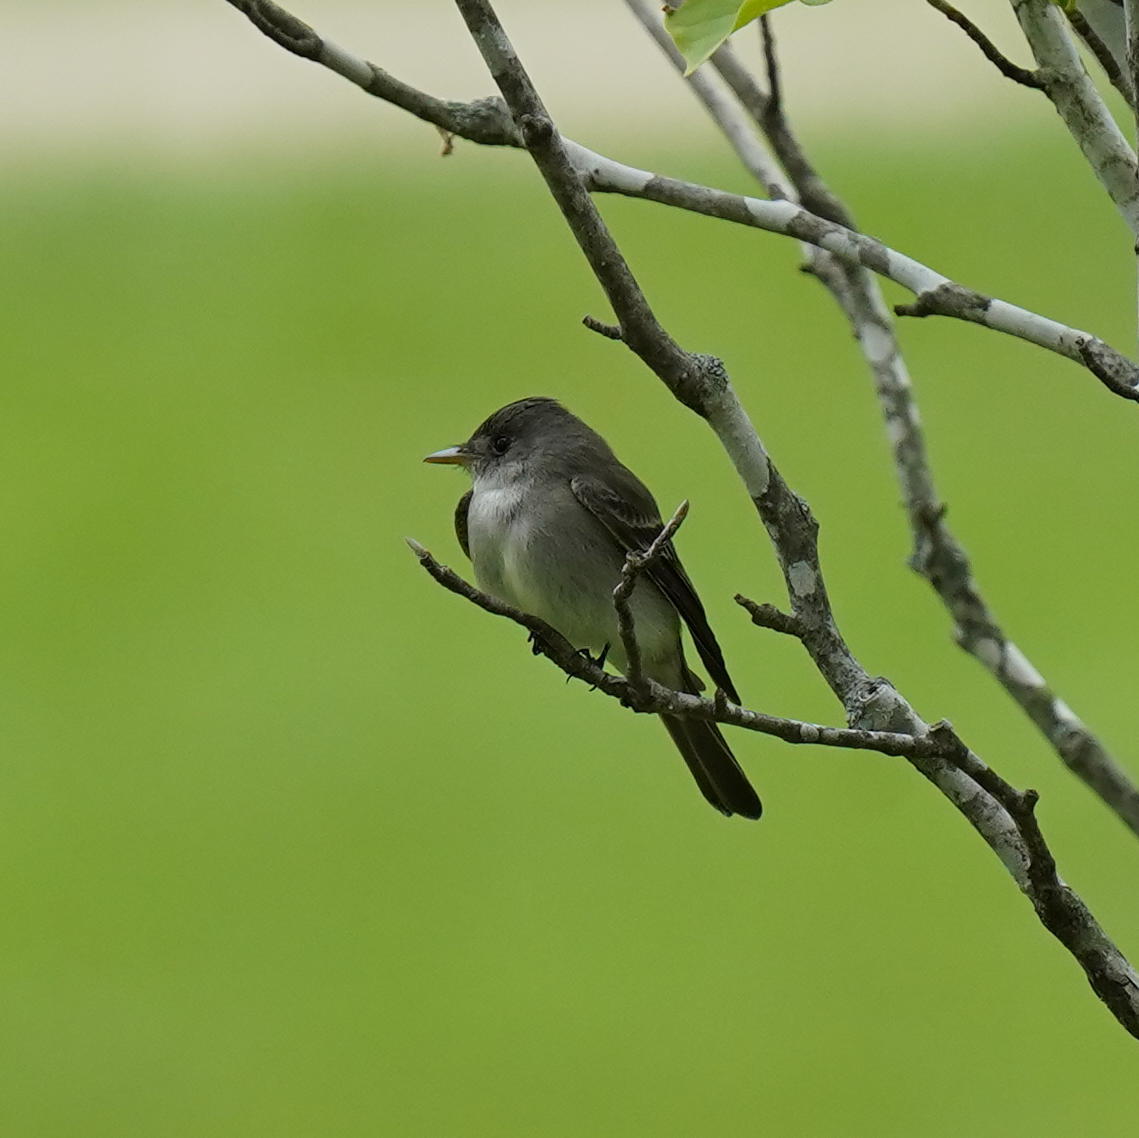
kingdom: Animalia
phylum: Chordata
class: Aves
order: Passeriformes
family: Tyrannidae
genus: Contopus
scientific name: Contopus virens
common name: Eastern wood-pewee
